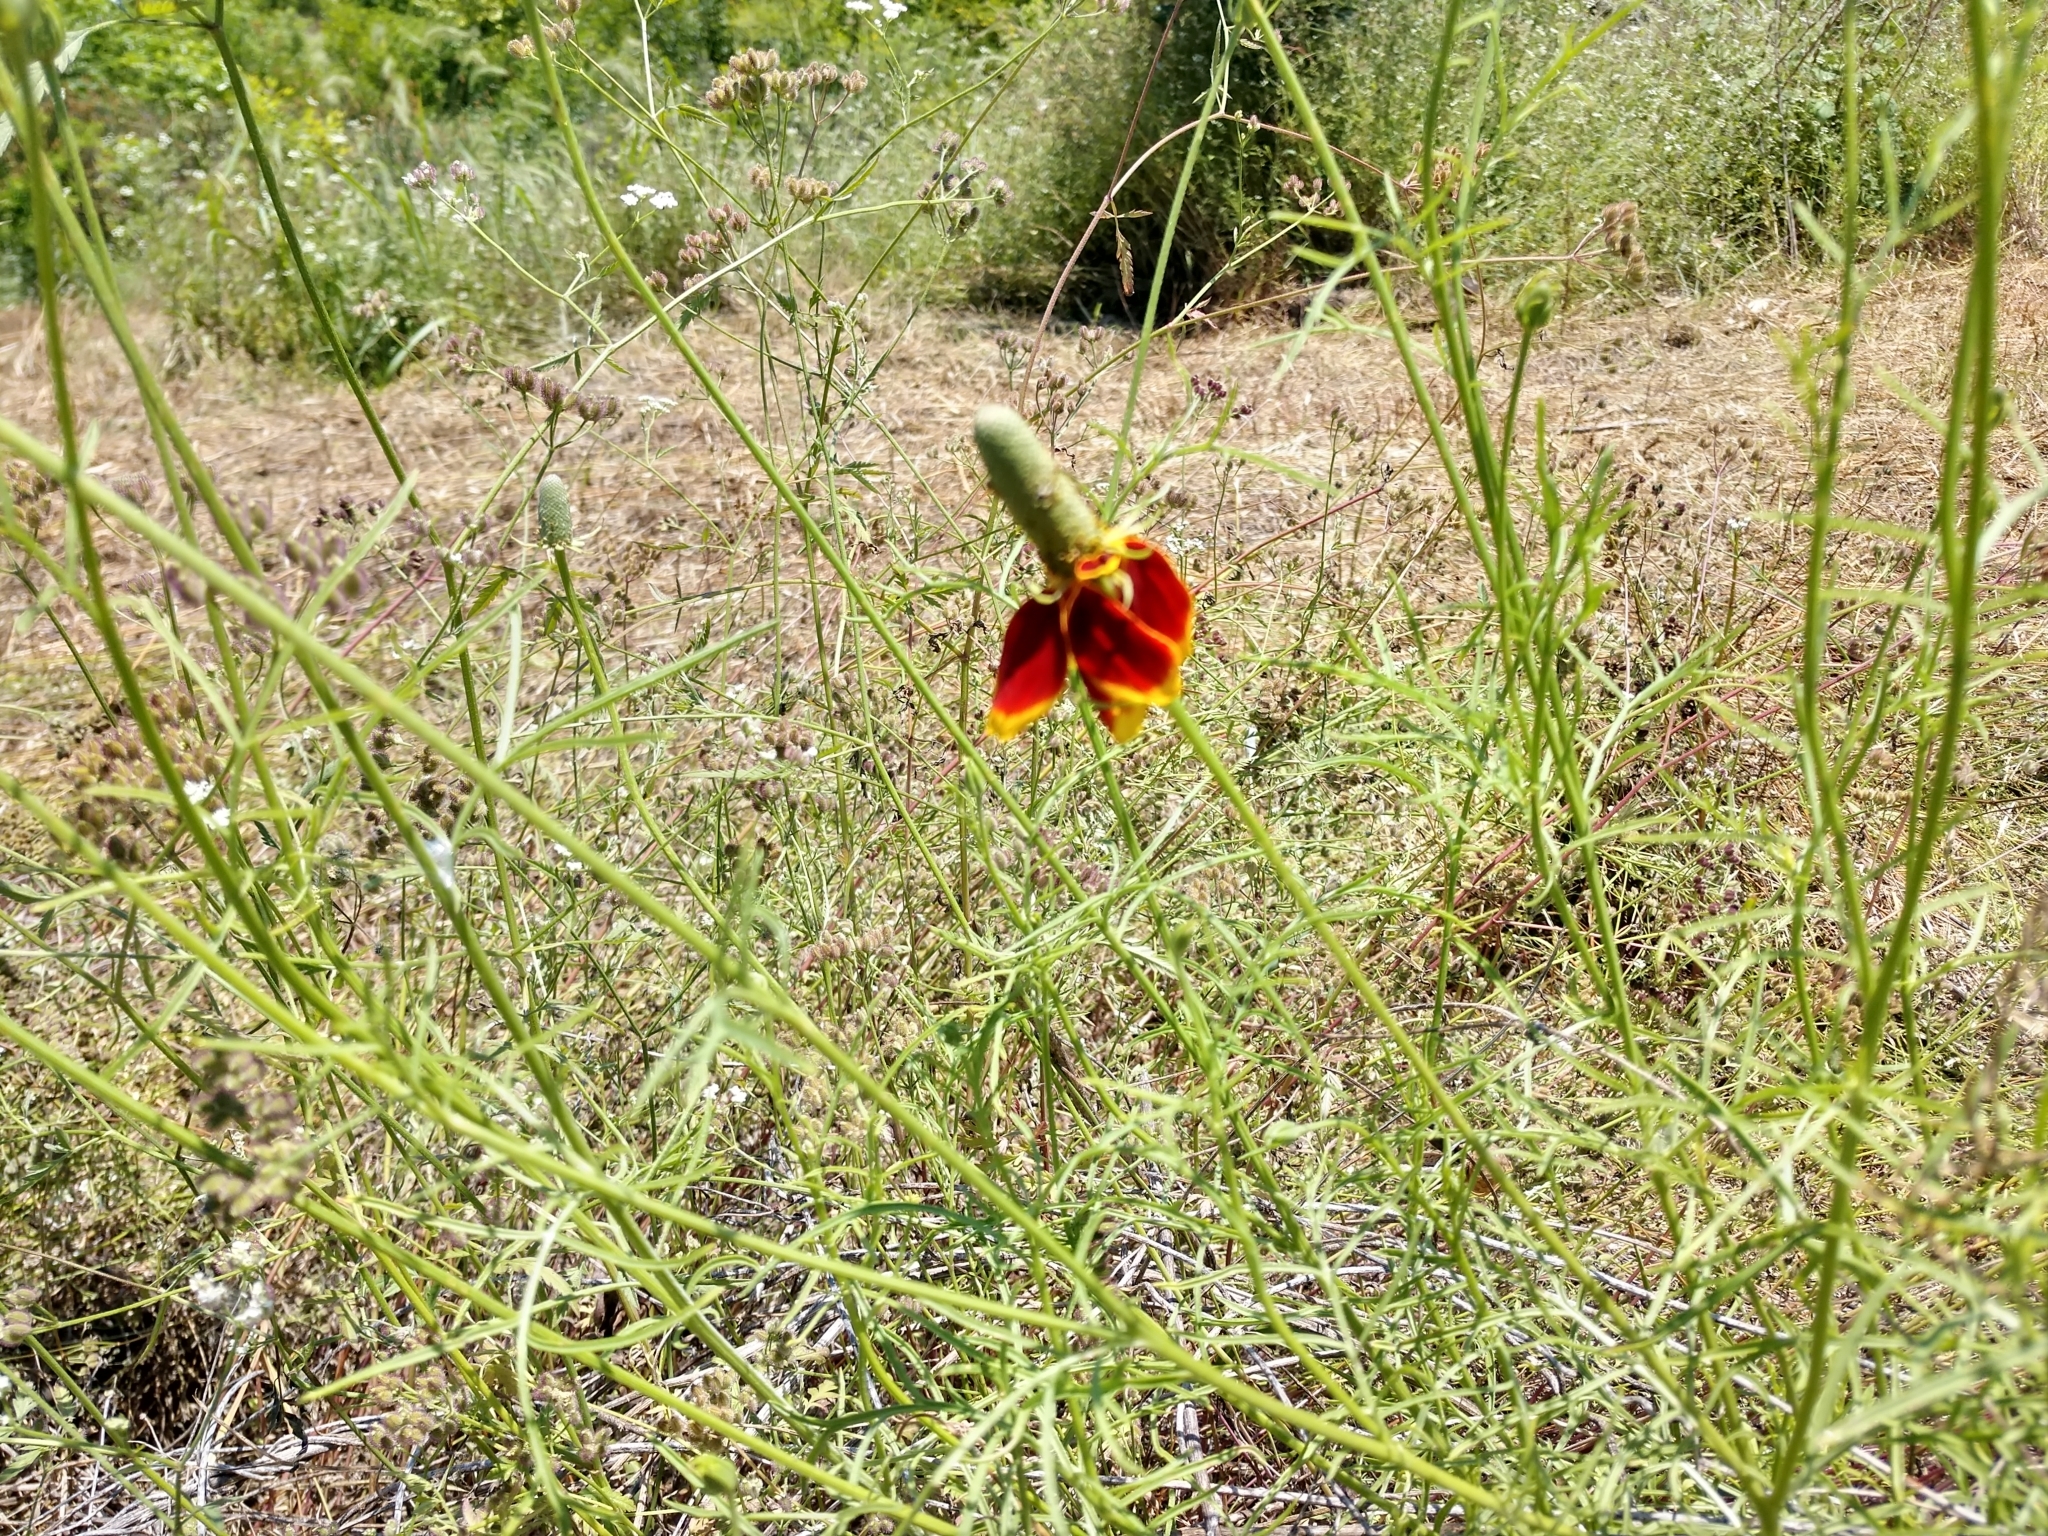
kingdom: Plantae
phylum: Tracheophyta
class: Magnoliopsida
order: Asterales
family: Asteraceae
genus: Ratibida
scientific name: Ratibida columnifera
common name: Prairie coneflower
